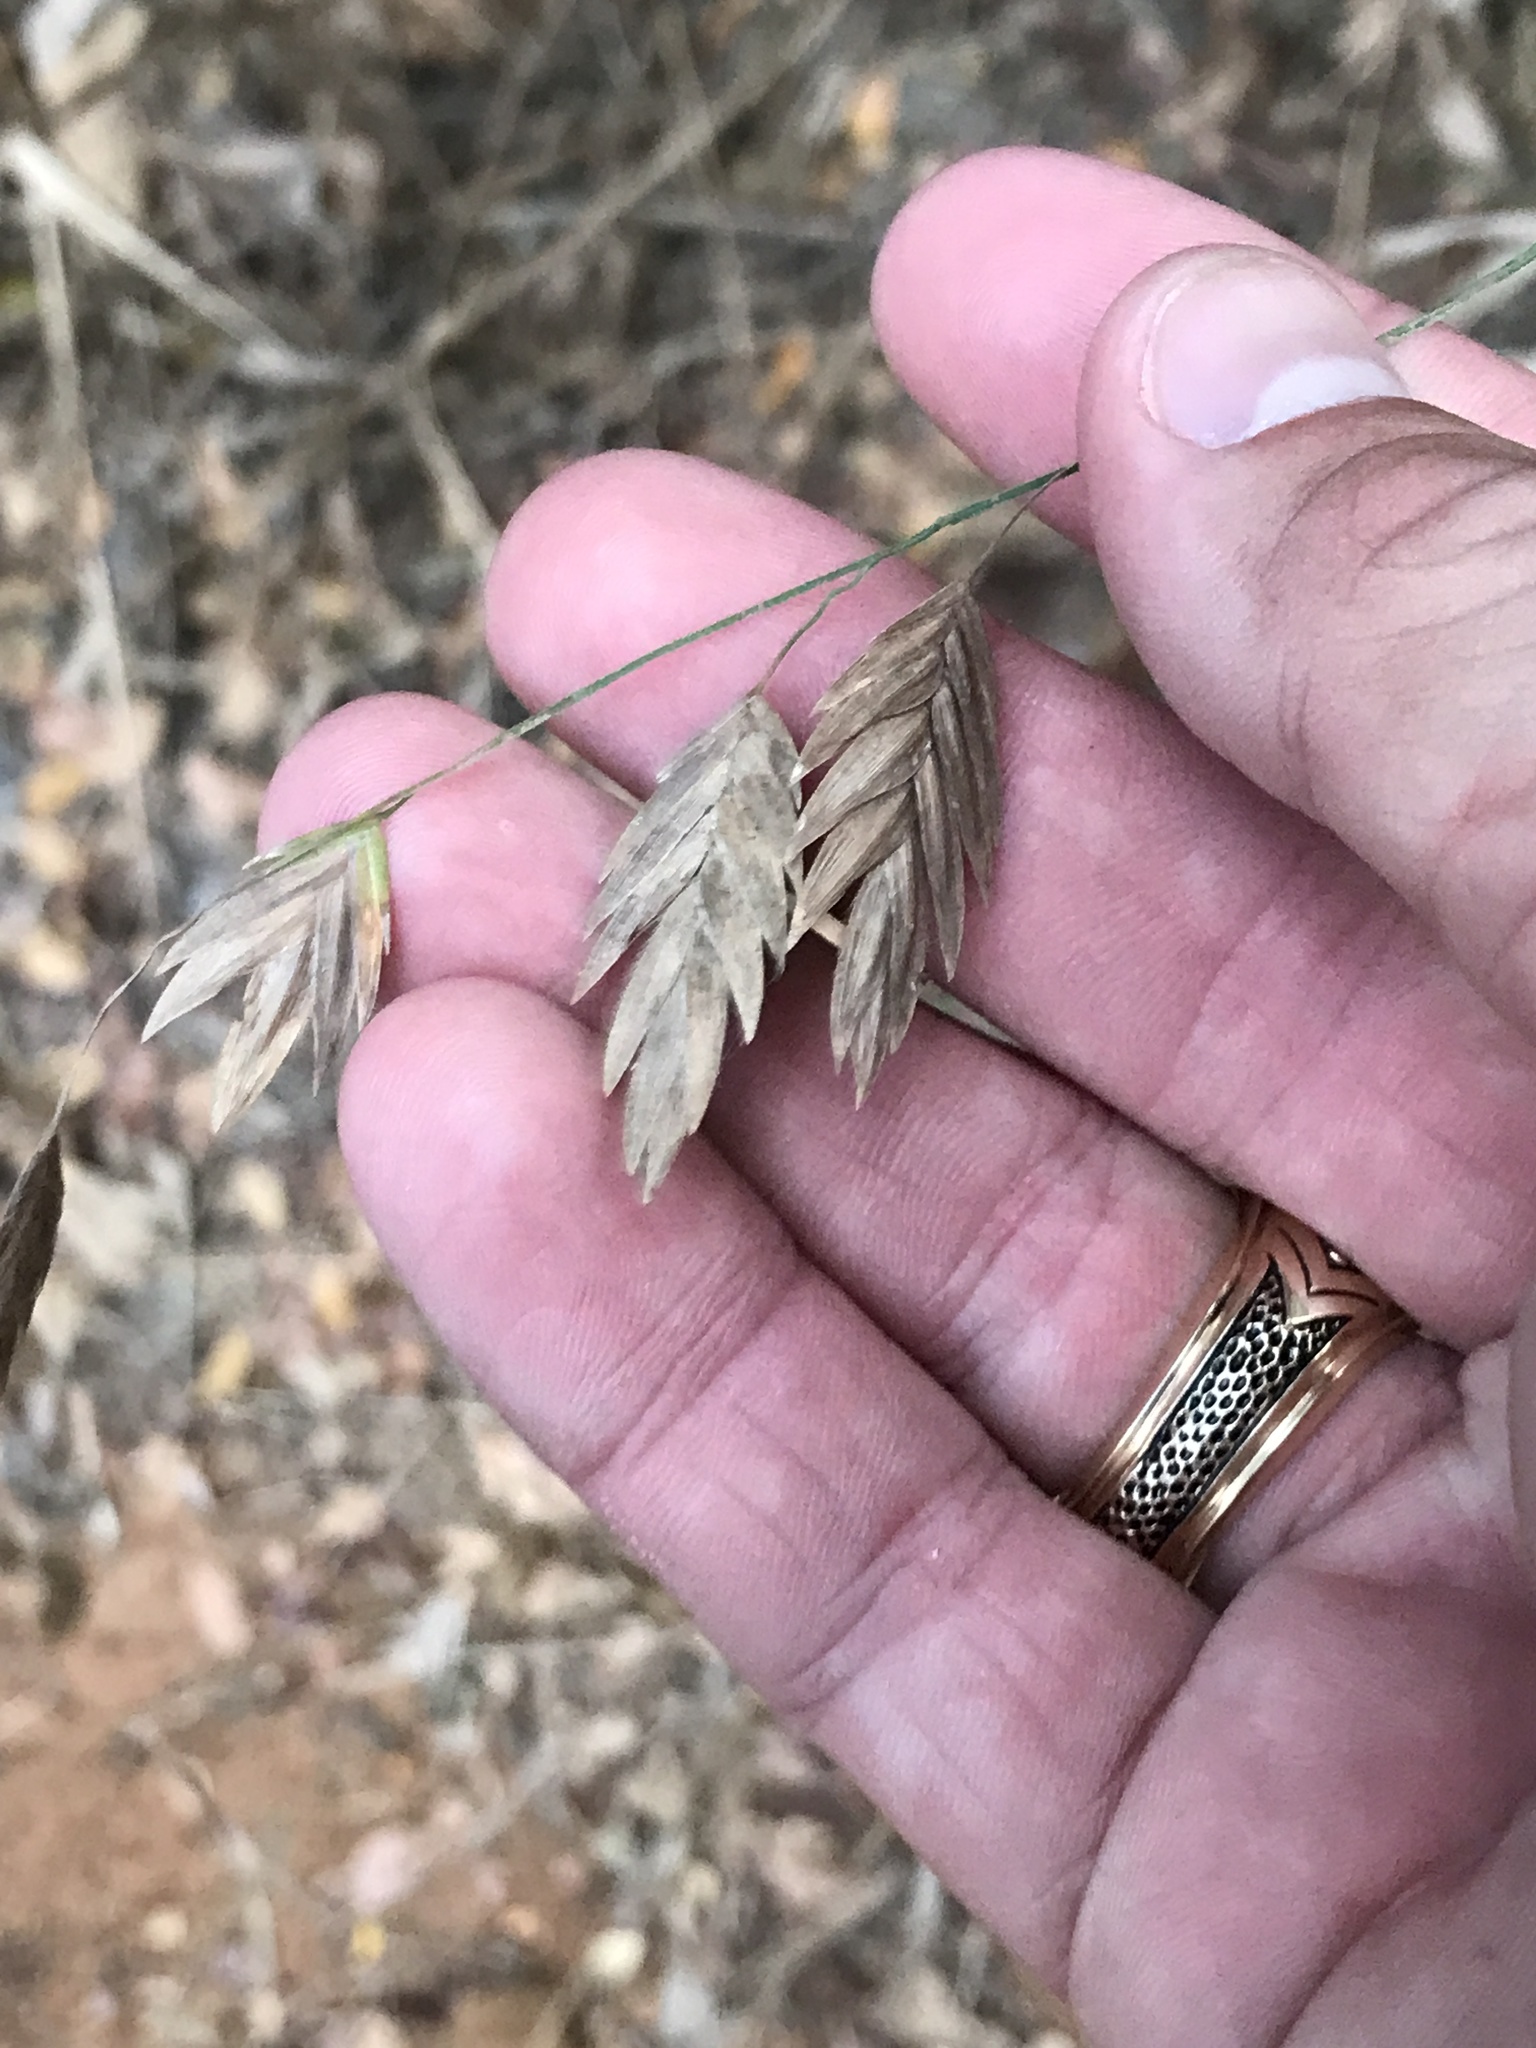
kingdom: Plantae
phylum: Tracheophyta
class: Liliopsida
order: Poales
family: Poaceae
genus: Chasmanthium
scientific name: Chasmanthium latifolium
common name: Broad-leaved chasmanthium
